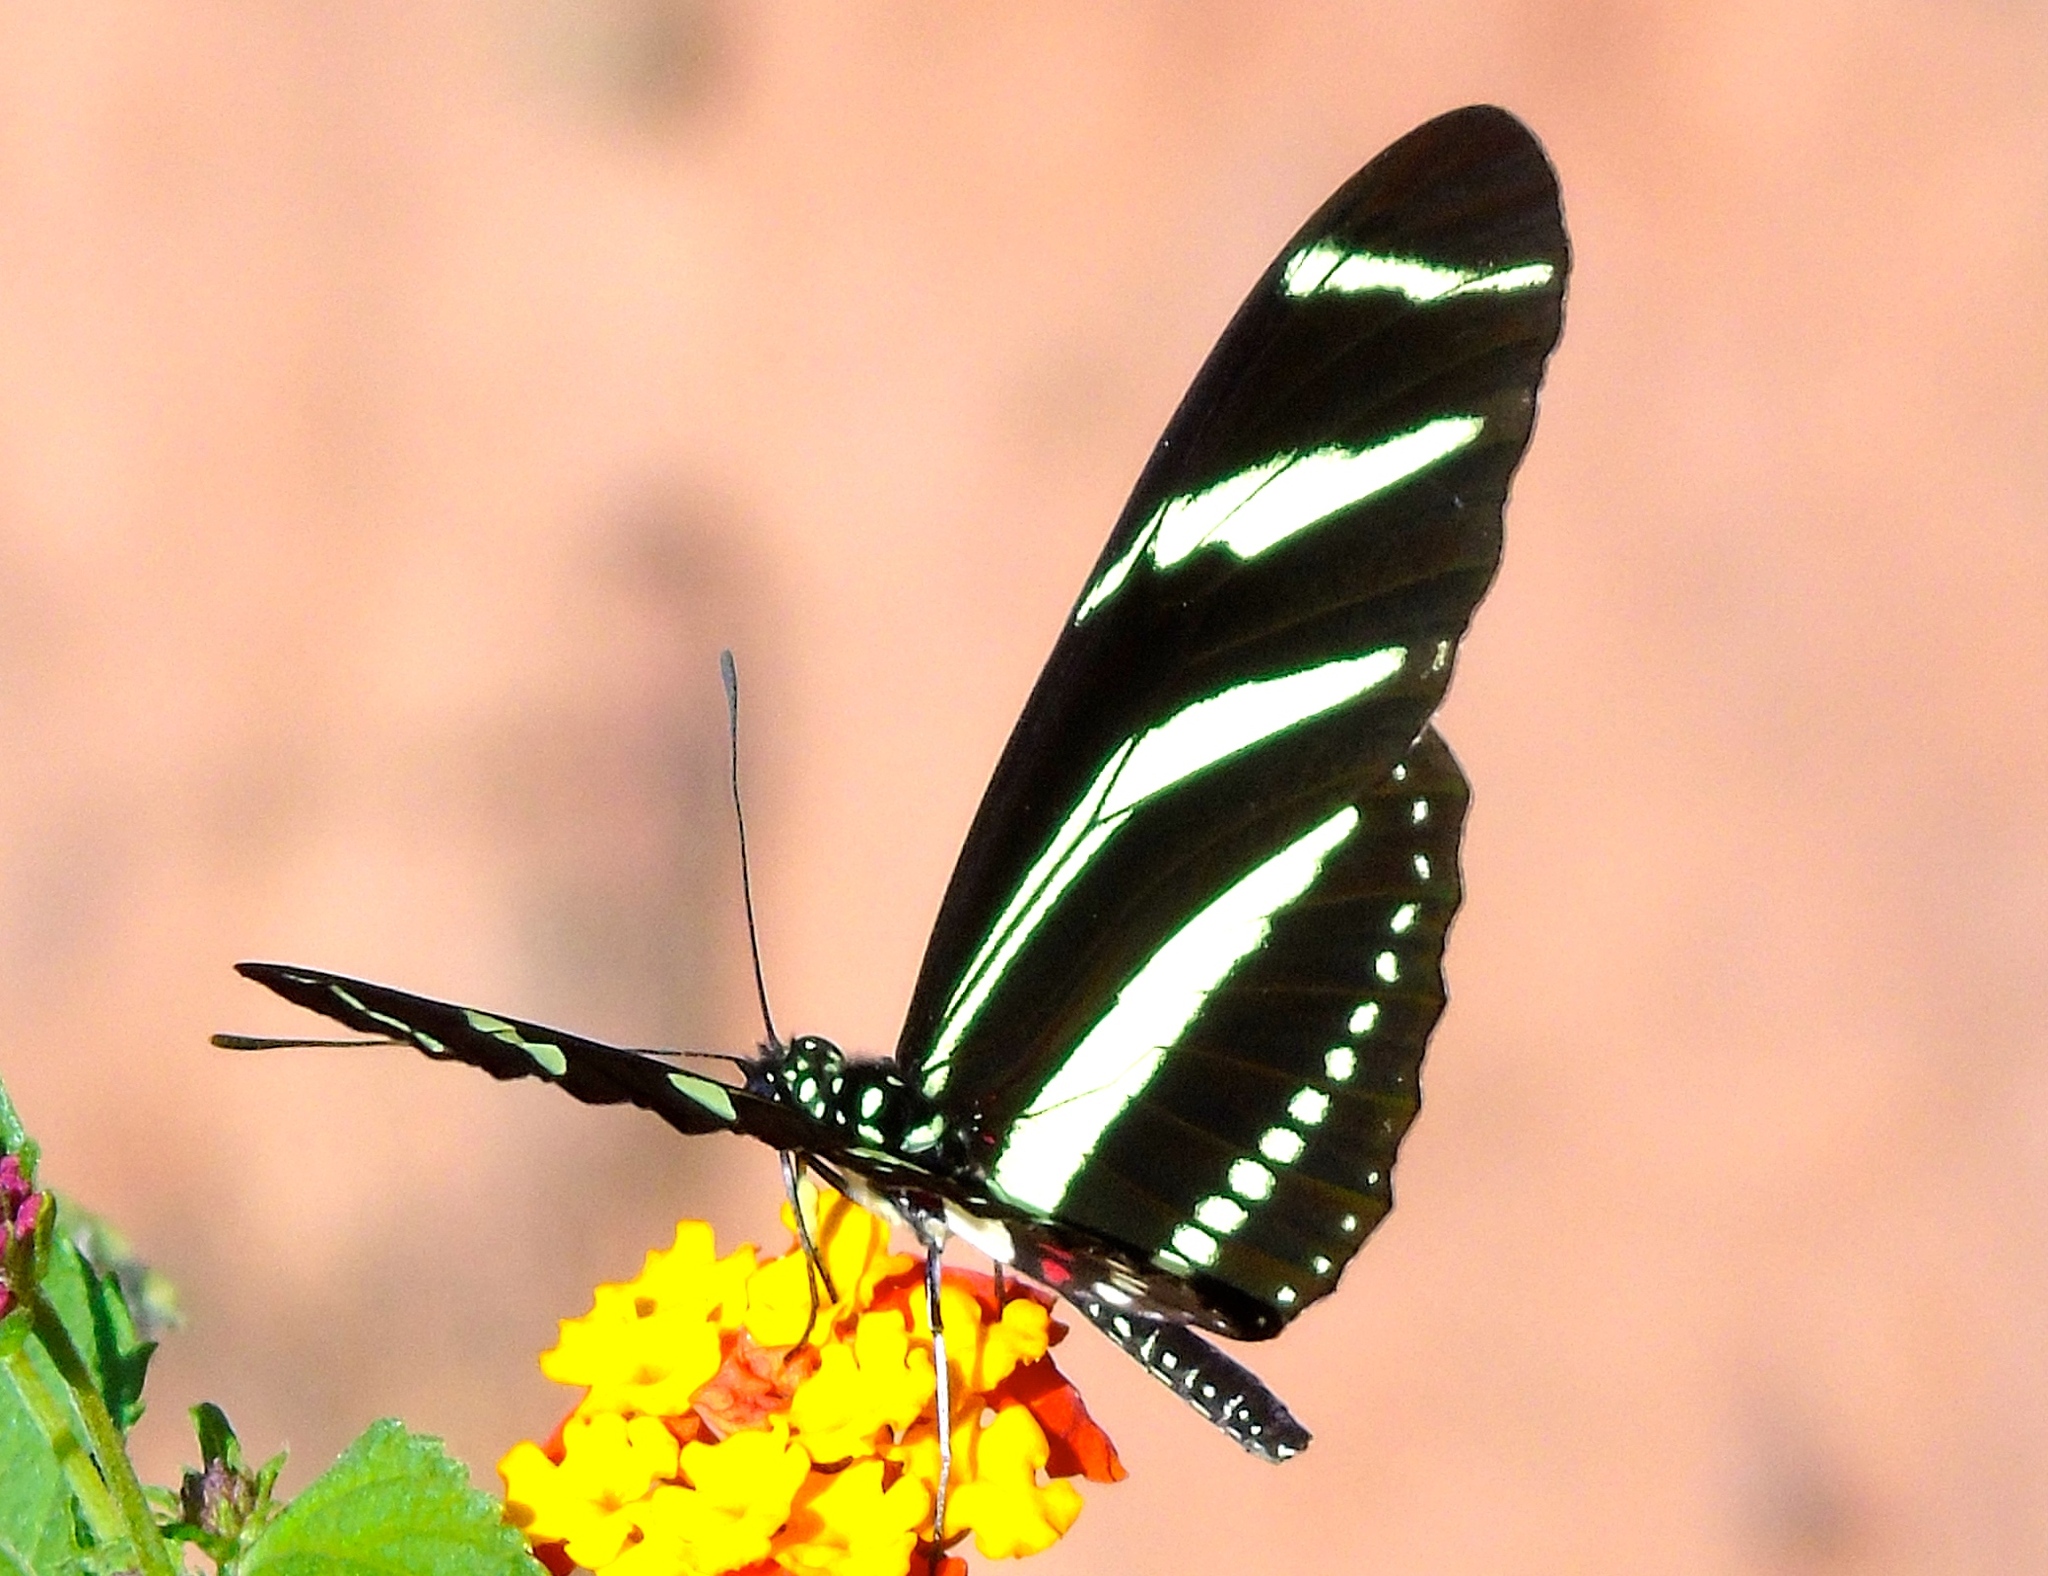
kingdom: Animalia
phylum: Arthropoda
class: Insecta
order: Lepidoptera
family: Nymphalidae
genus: Heliconius
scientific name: Heliconius charithonia
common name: Zebra long wing
